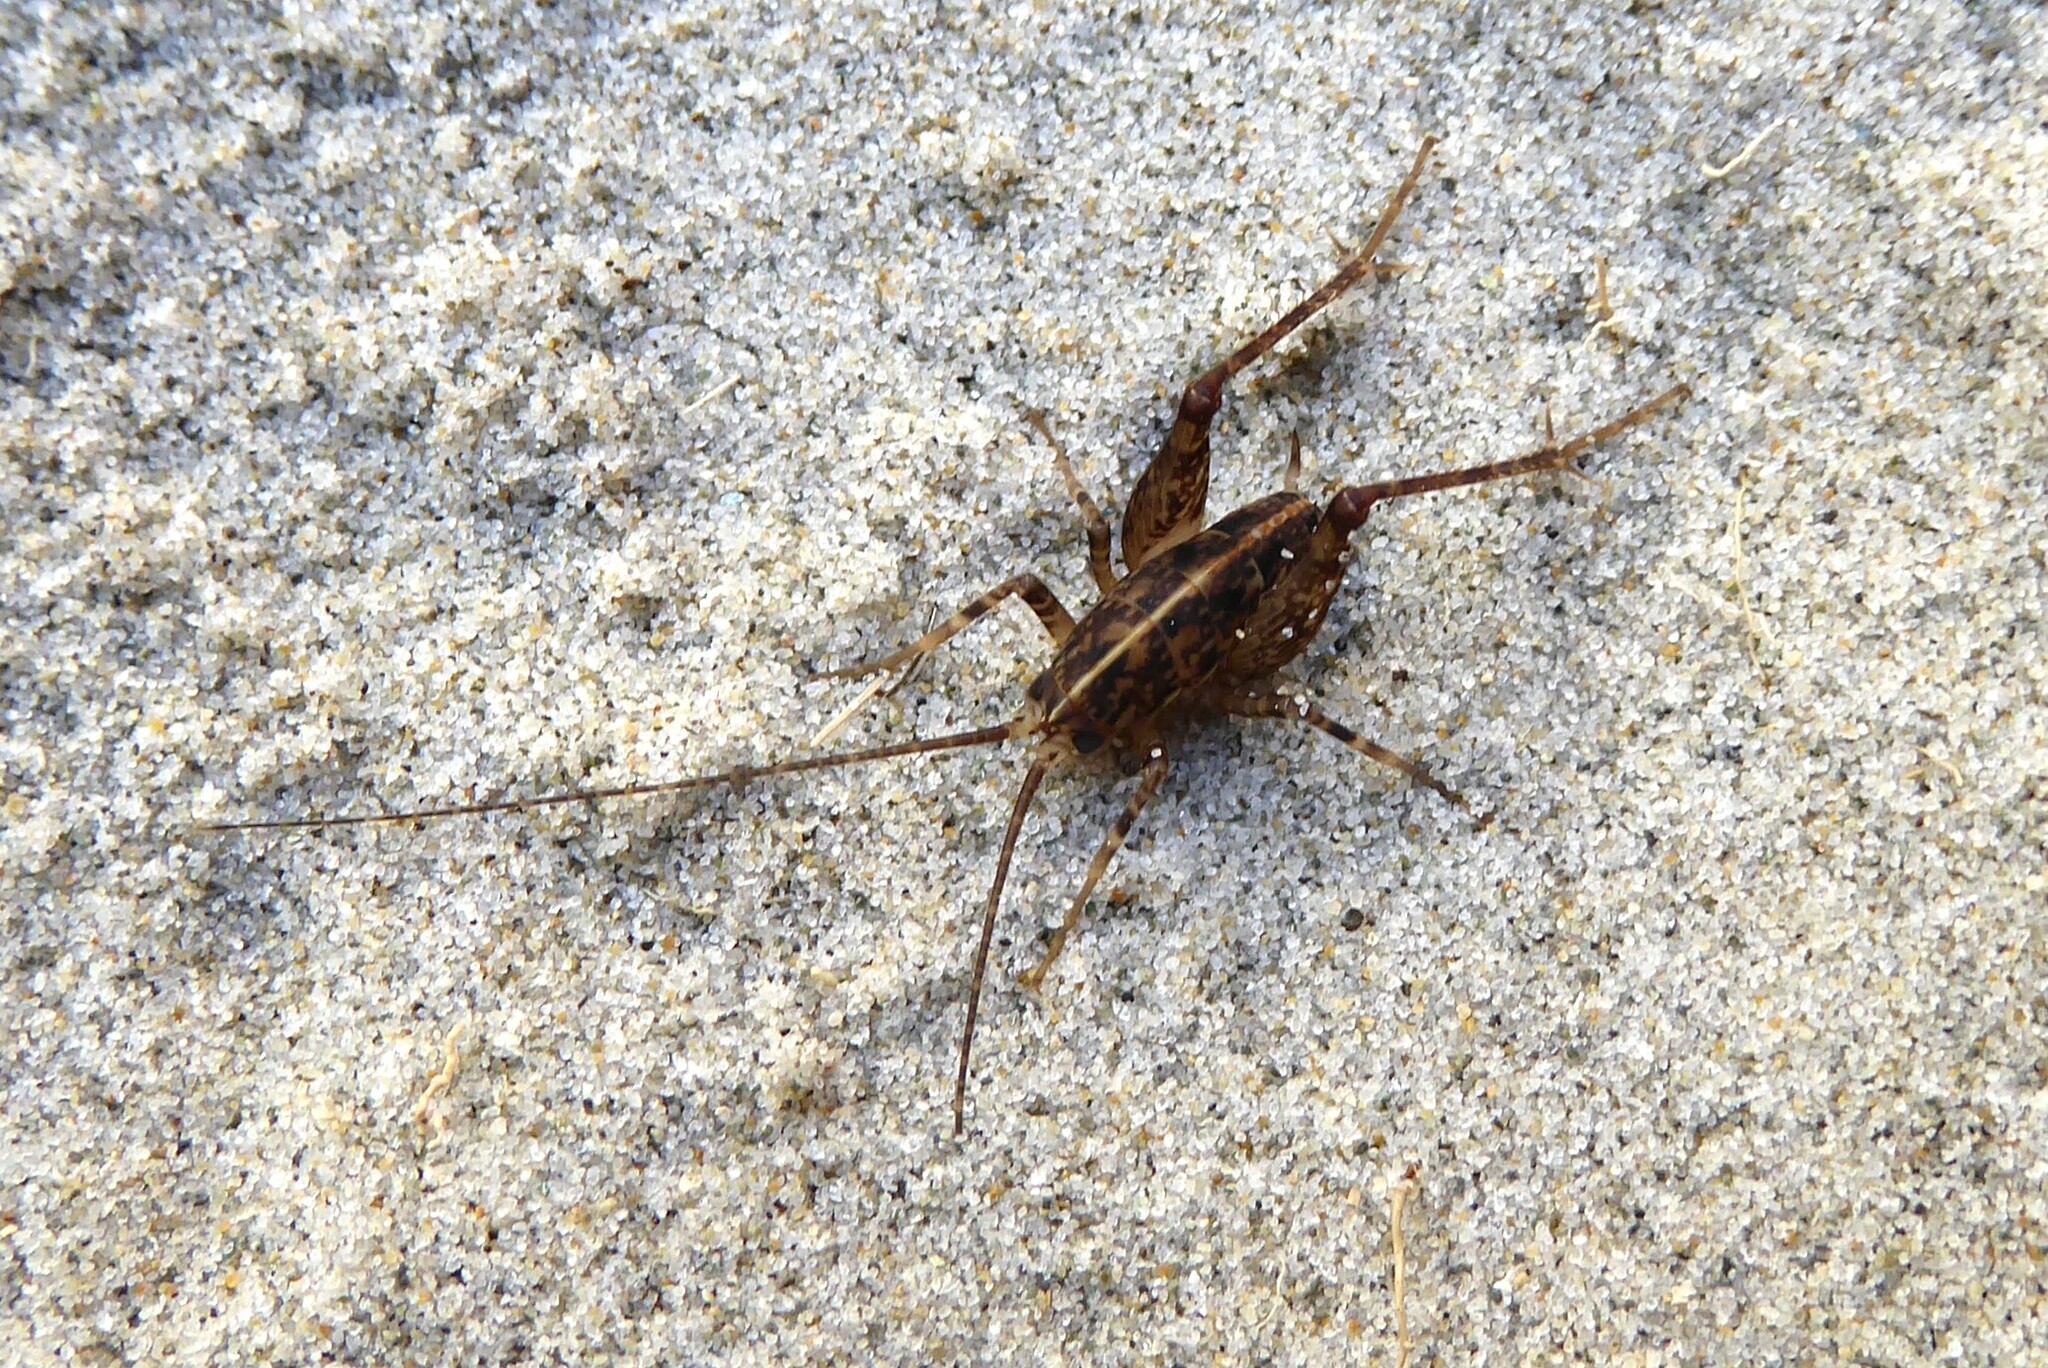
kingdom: Animalia
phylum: Arthropoda
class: Insecta
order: Orthoptera
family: Rhaphidophoridae
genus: Pleioplectron
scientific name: Pleioplectron simplex
